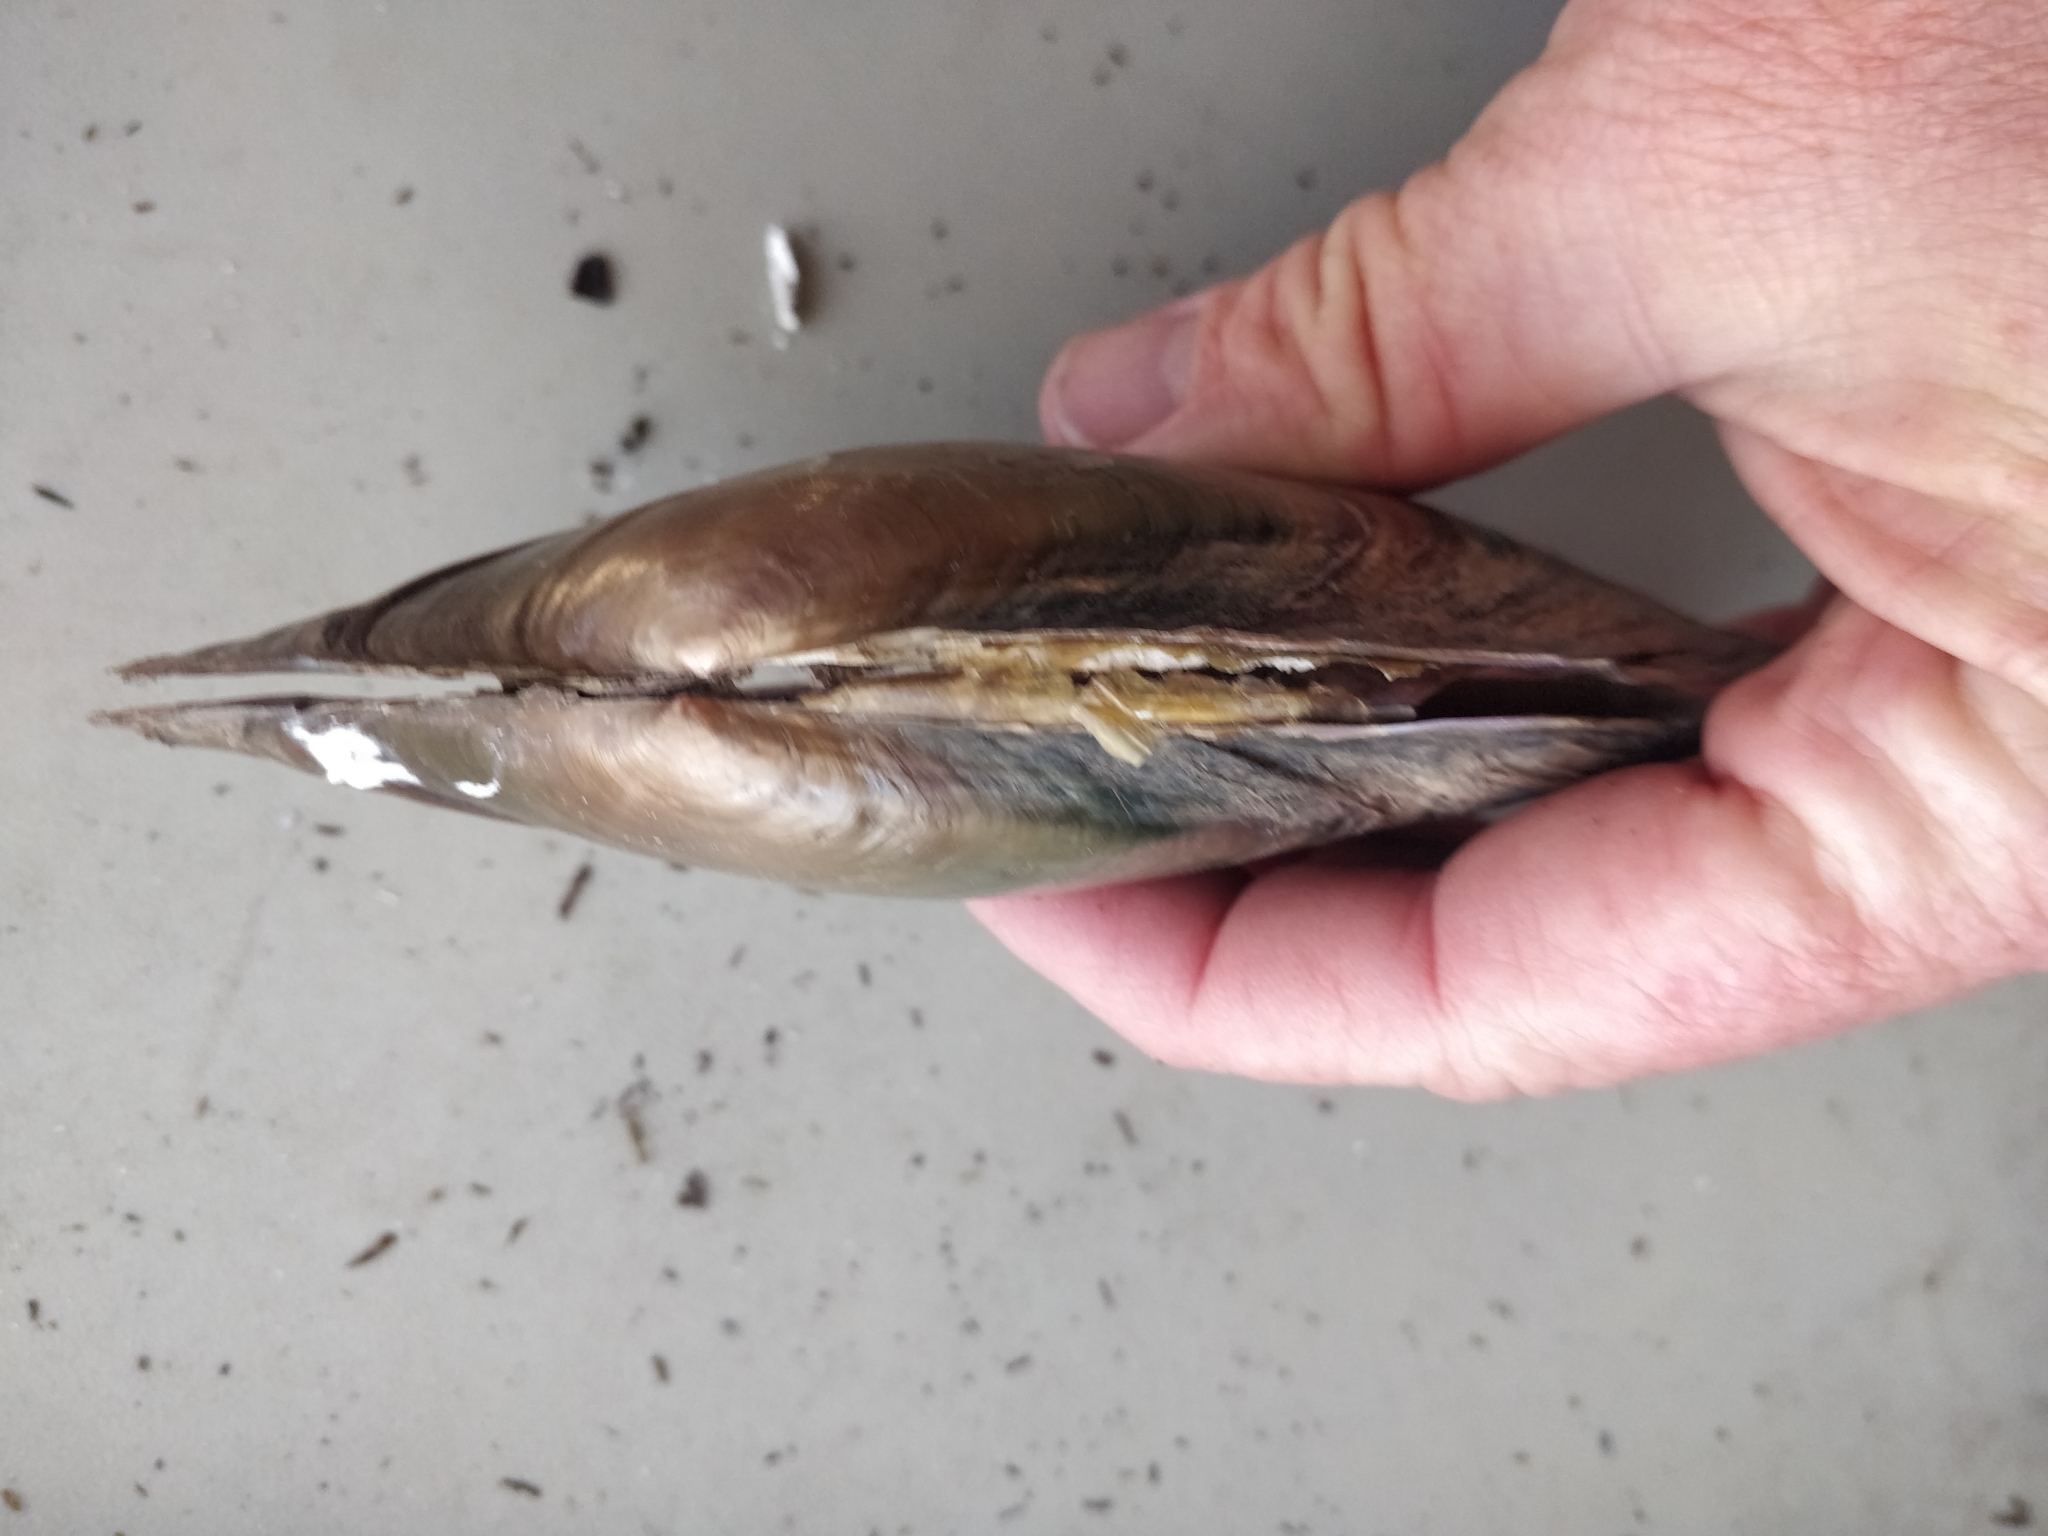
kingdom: Animalia
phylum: Mollusca
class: Bivalvia
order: Unionida
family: Unionidae
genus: Potamilus
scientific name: Potamilus ohiensis
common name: Pink papershell
